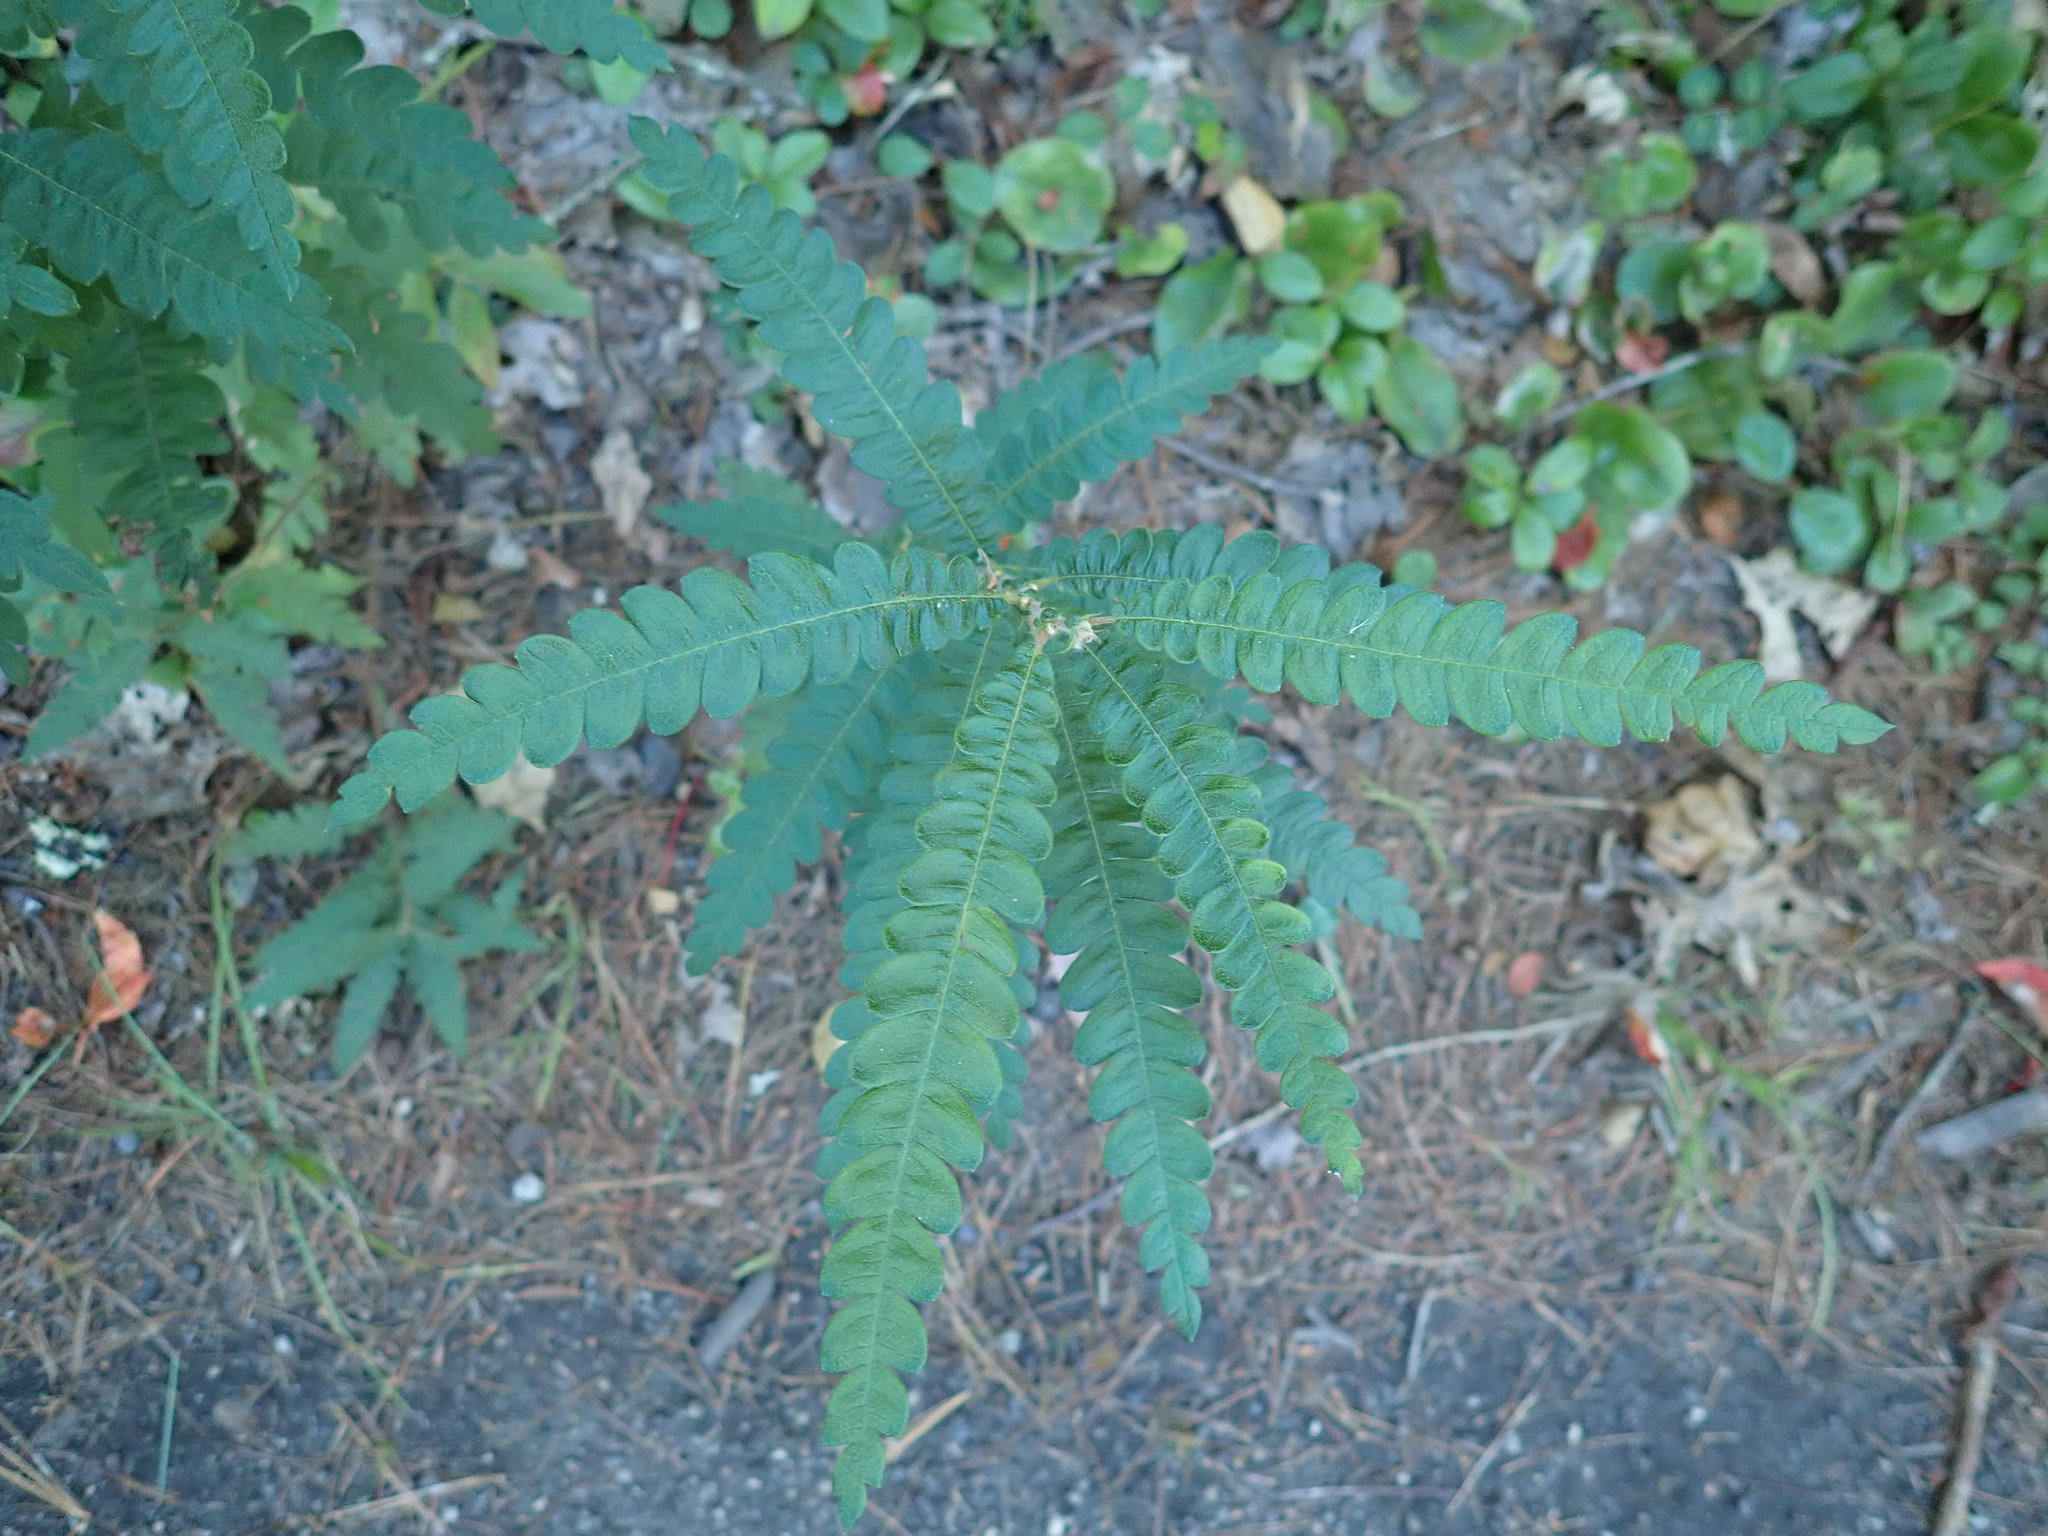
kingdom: Plantae
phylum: Tracheophyta
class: Magnoliopsida
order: Fagales
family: Myricaceae
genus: Comptonia
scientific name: Comptonia peregrina
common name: Sweet-fern
